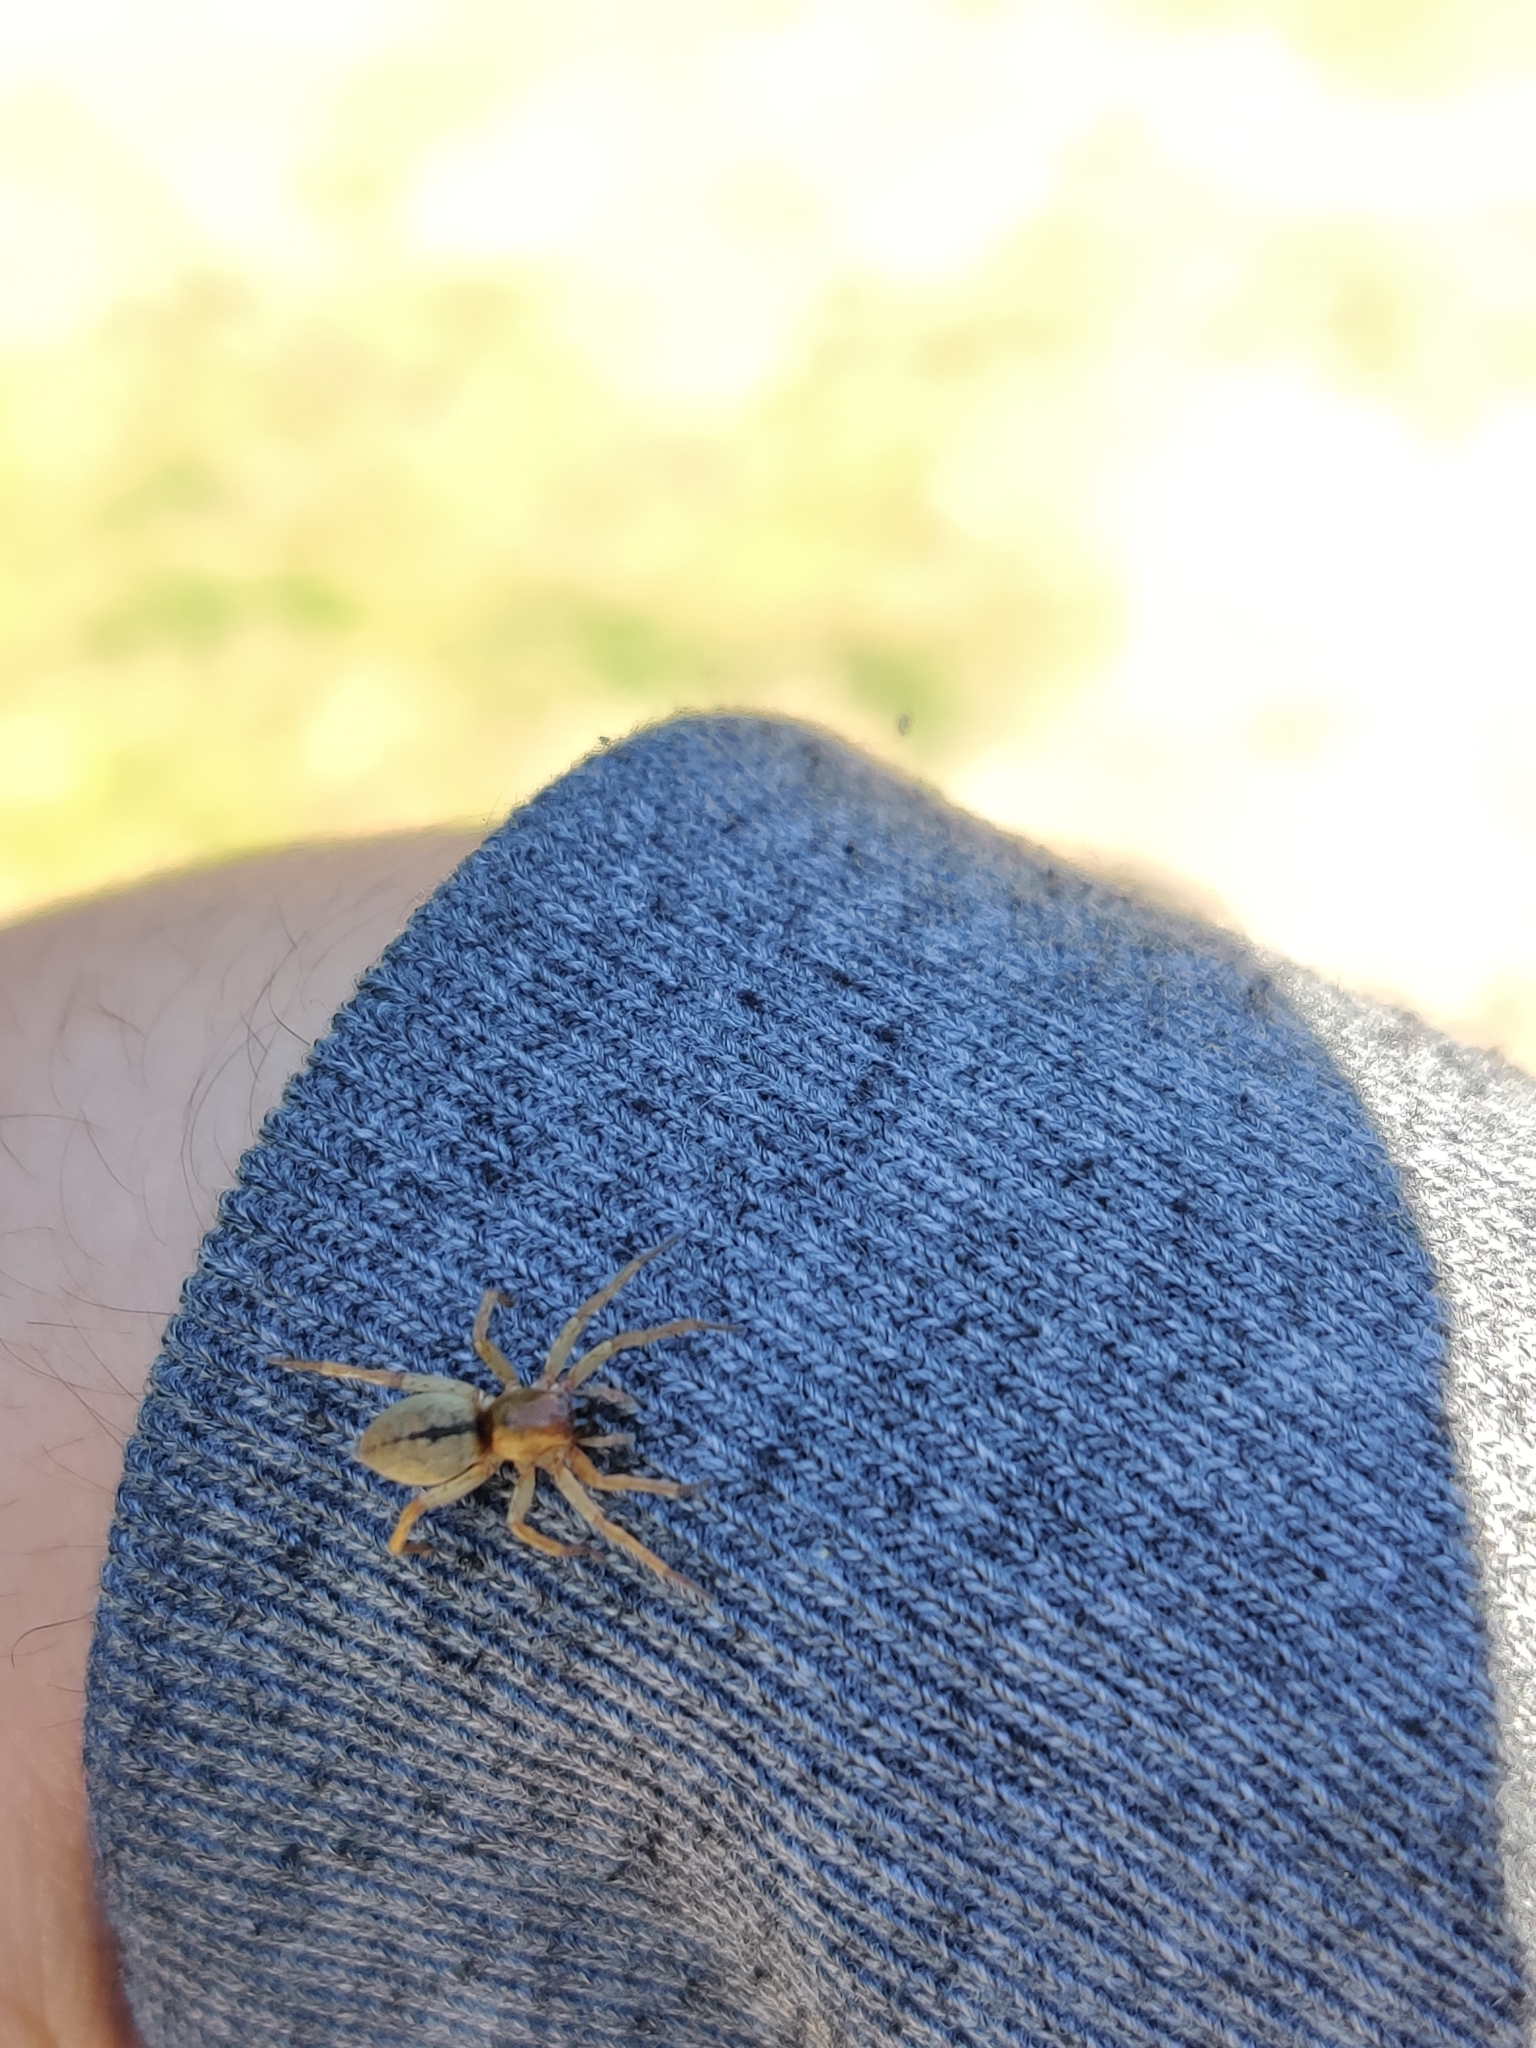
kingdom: Animalia
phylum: Arthropoda
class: Arachnida
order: Araneae
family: Clubionidae
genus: Clubiona
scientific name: Clubiona subsultans
